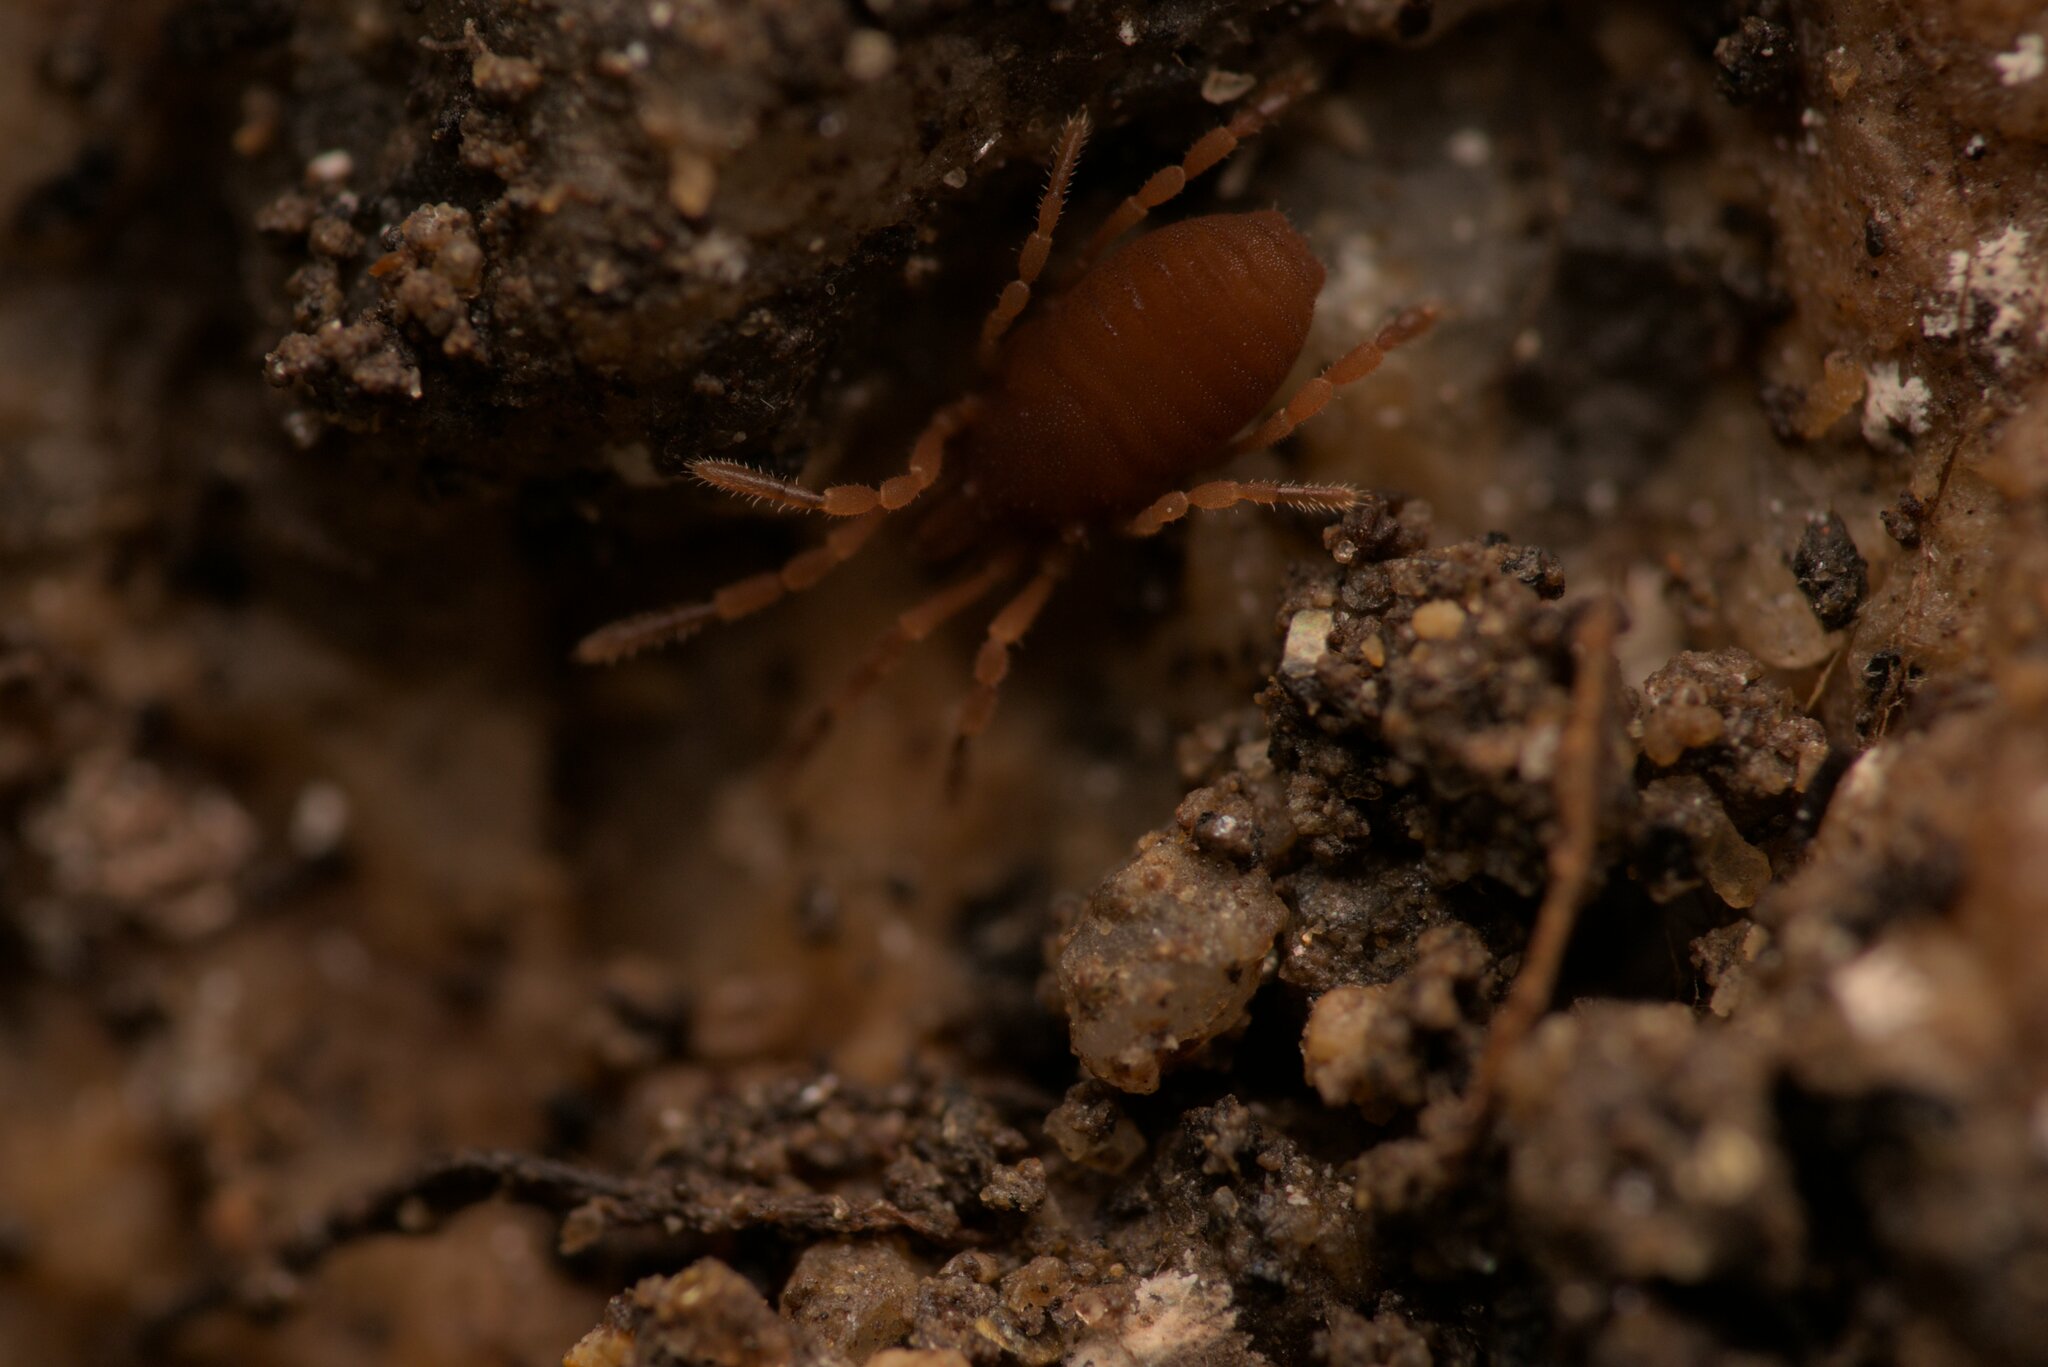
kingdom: Animalia
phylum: Arthropoda
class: Arachnida
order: Opiliones
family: Sironidae
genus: Siro
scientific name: Siro rubens
